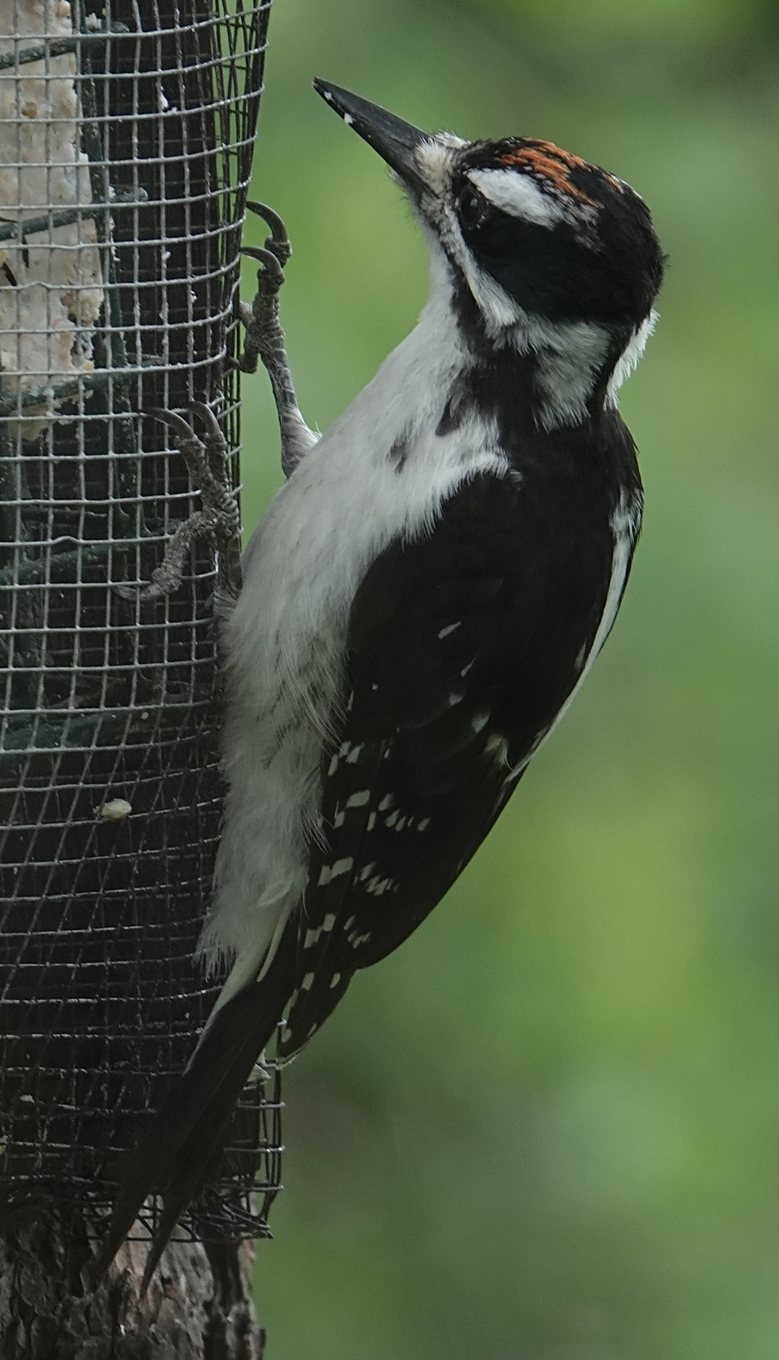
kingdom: Animalia
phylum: Chordata
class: Aves
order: Piciformes
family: Picidae
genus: Leuconotopicus
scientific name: Leuconotopicus villosus
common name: Hairy woodpecker
